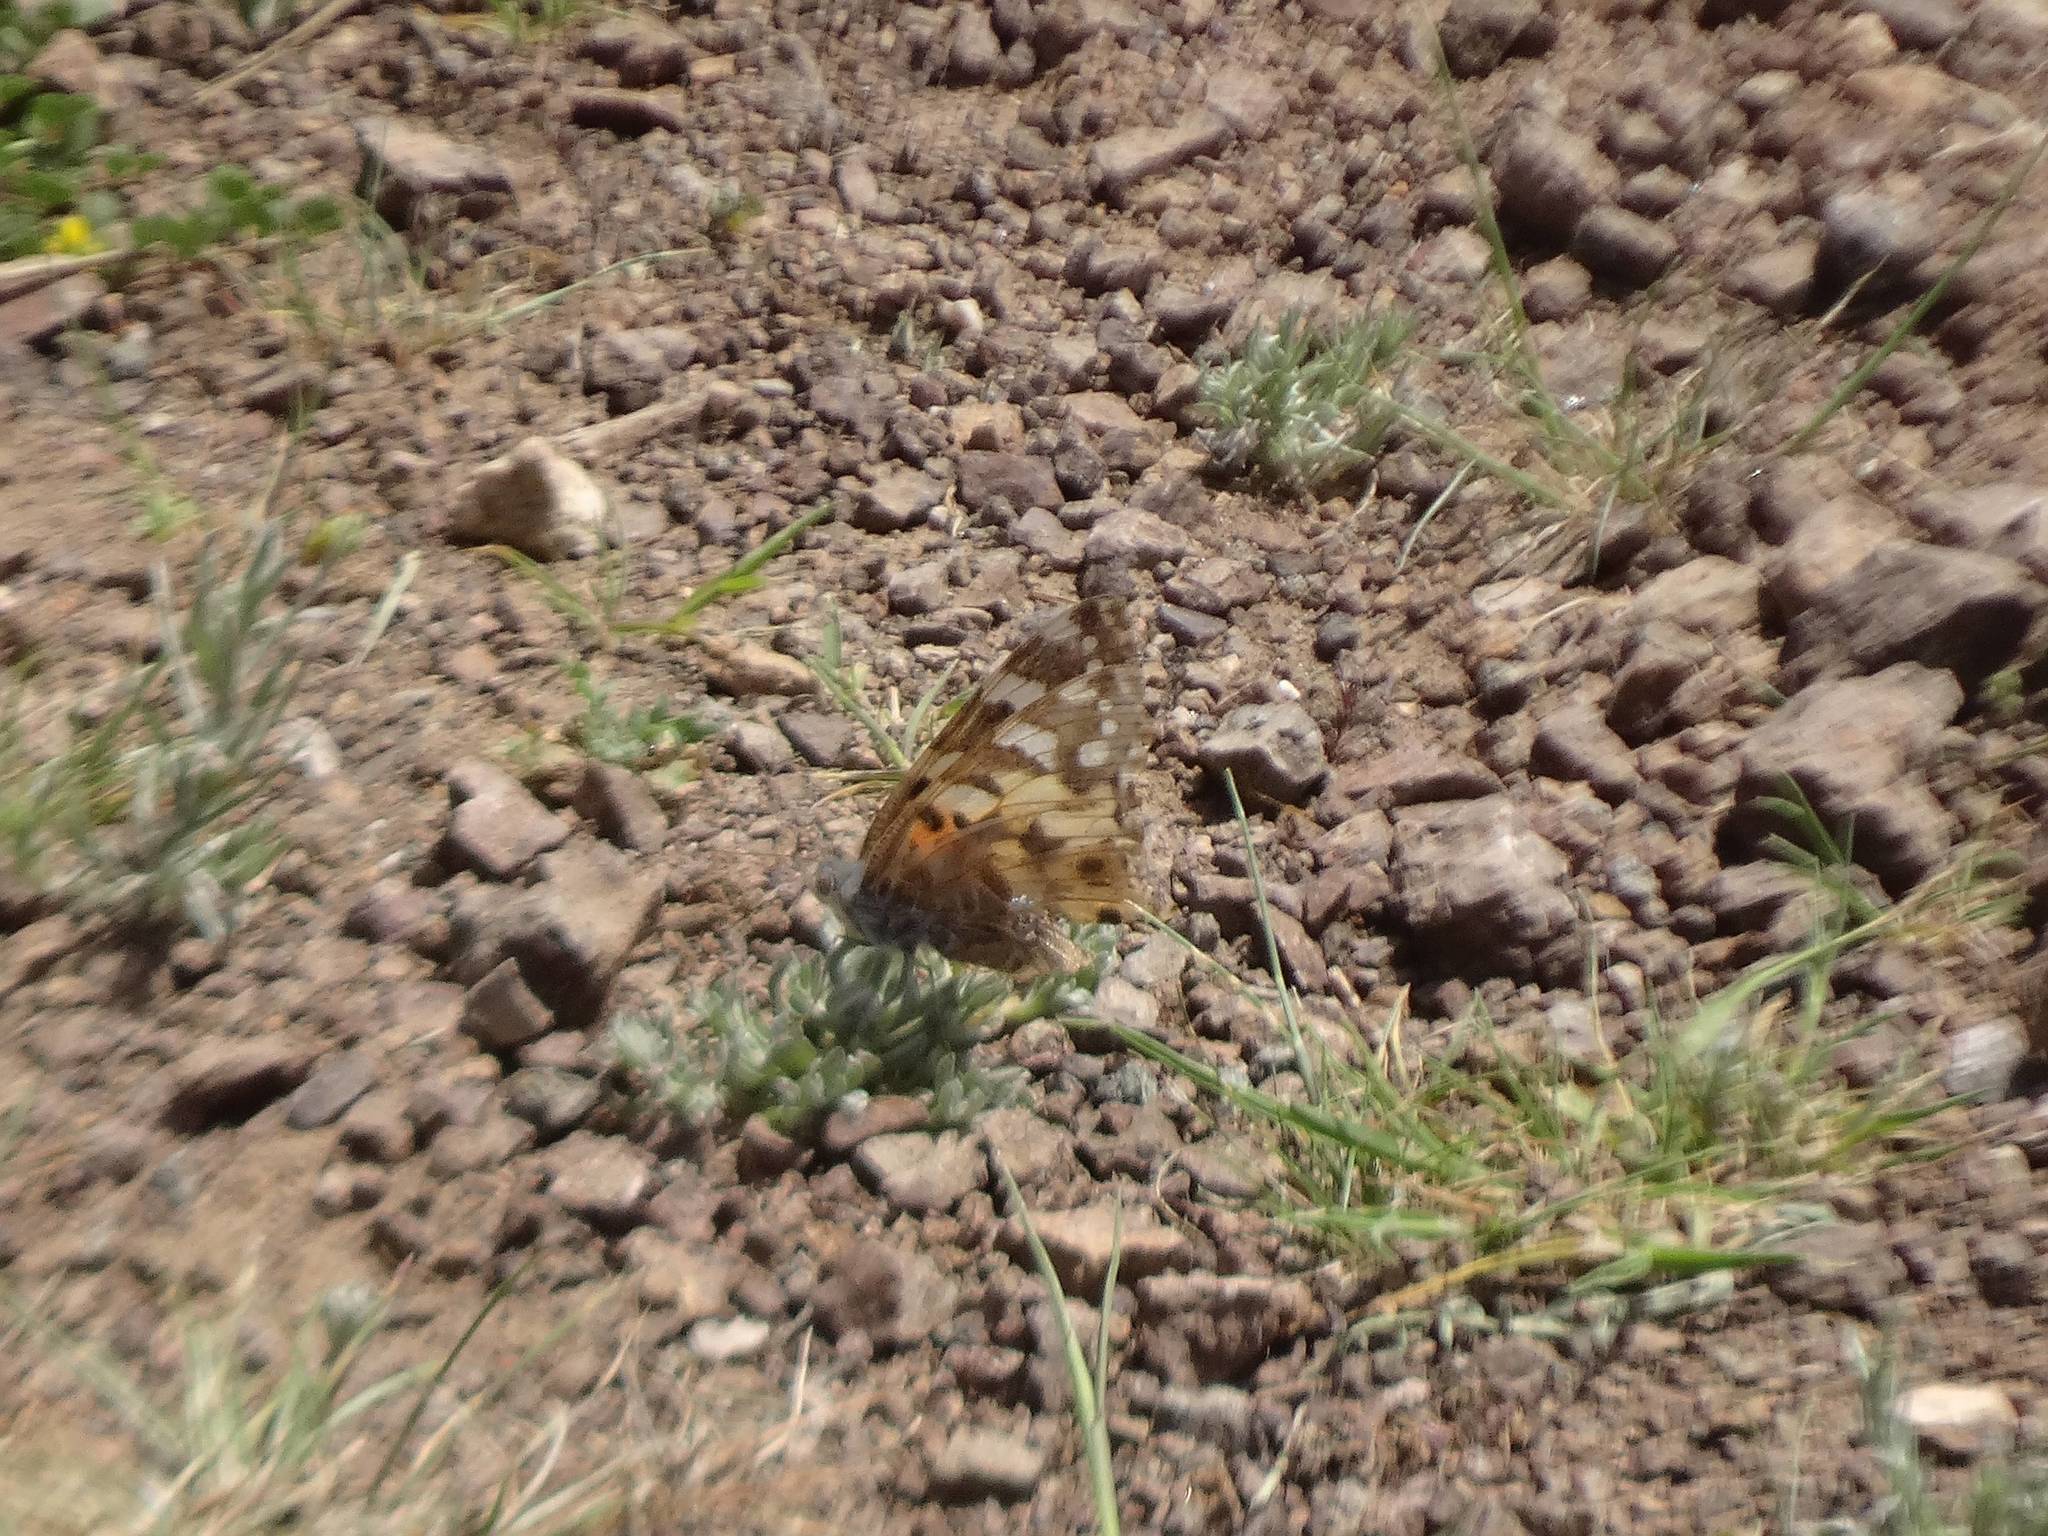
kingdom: Animalia
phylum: Arthropoda
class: Insecta
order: Lepidoptera
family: Nymphalidae
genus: Vanessa
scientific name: Vanessa cardui
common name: Painted lady
